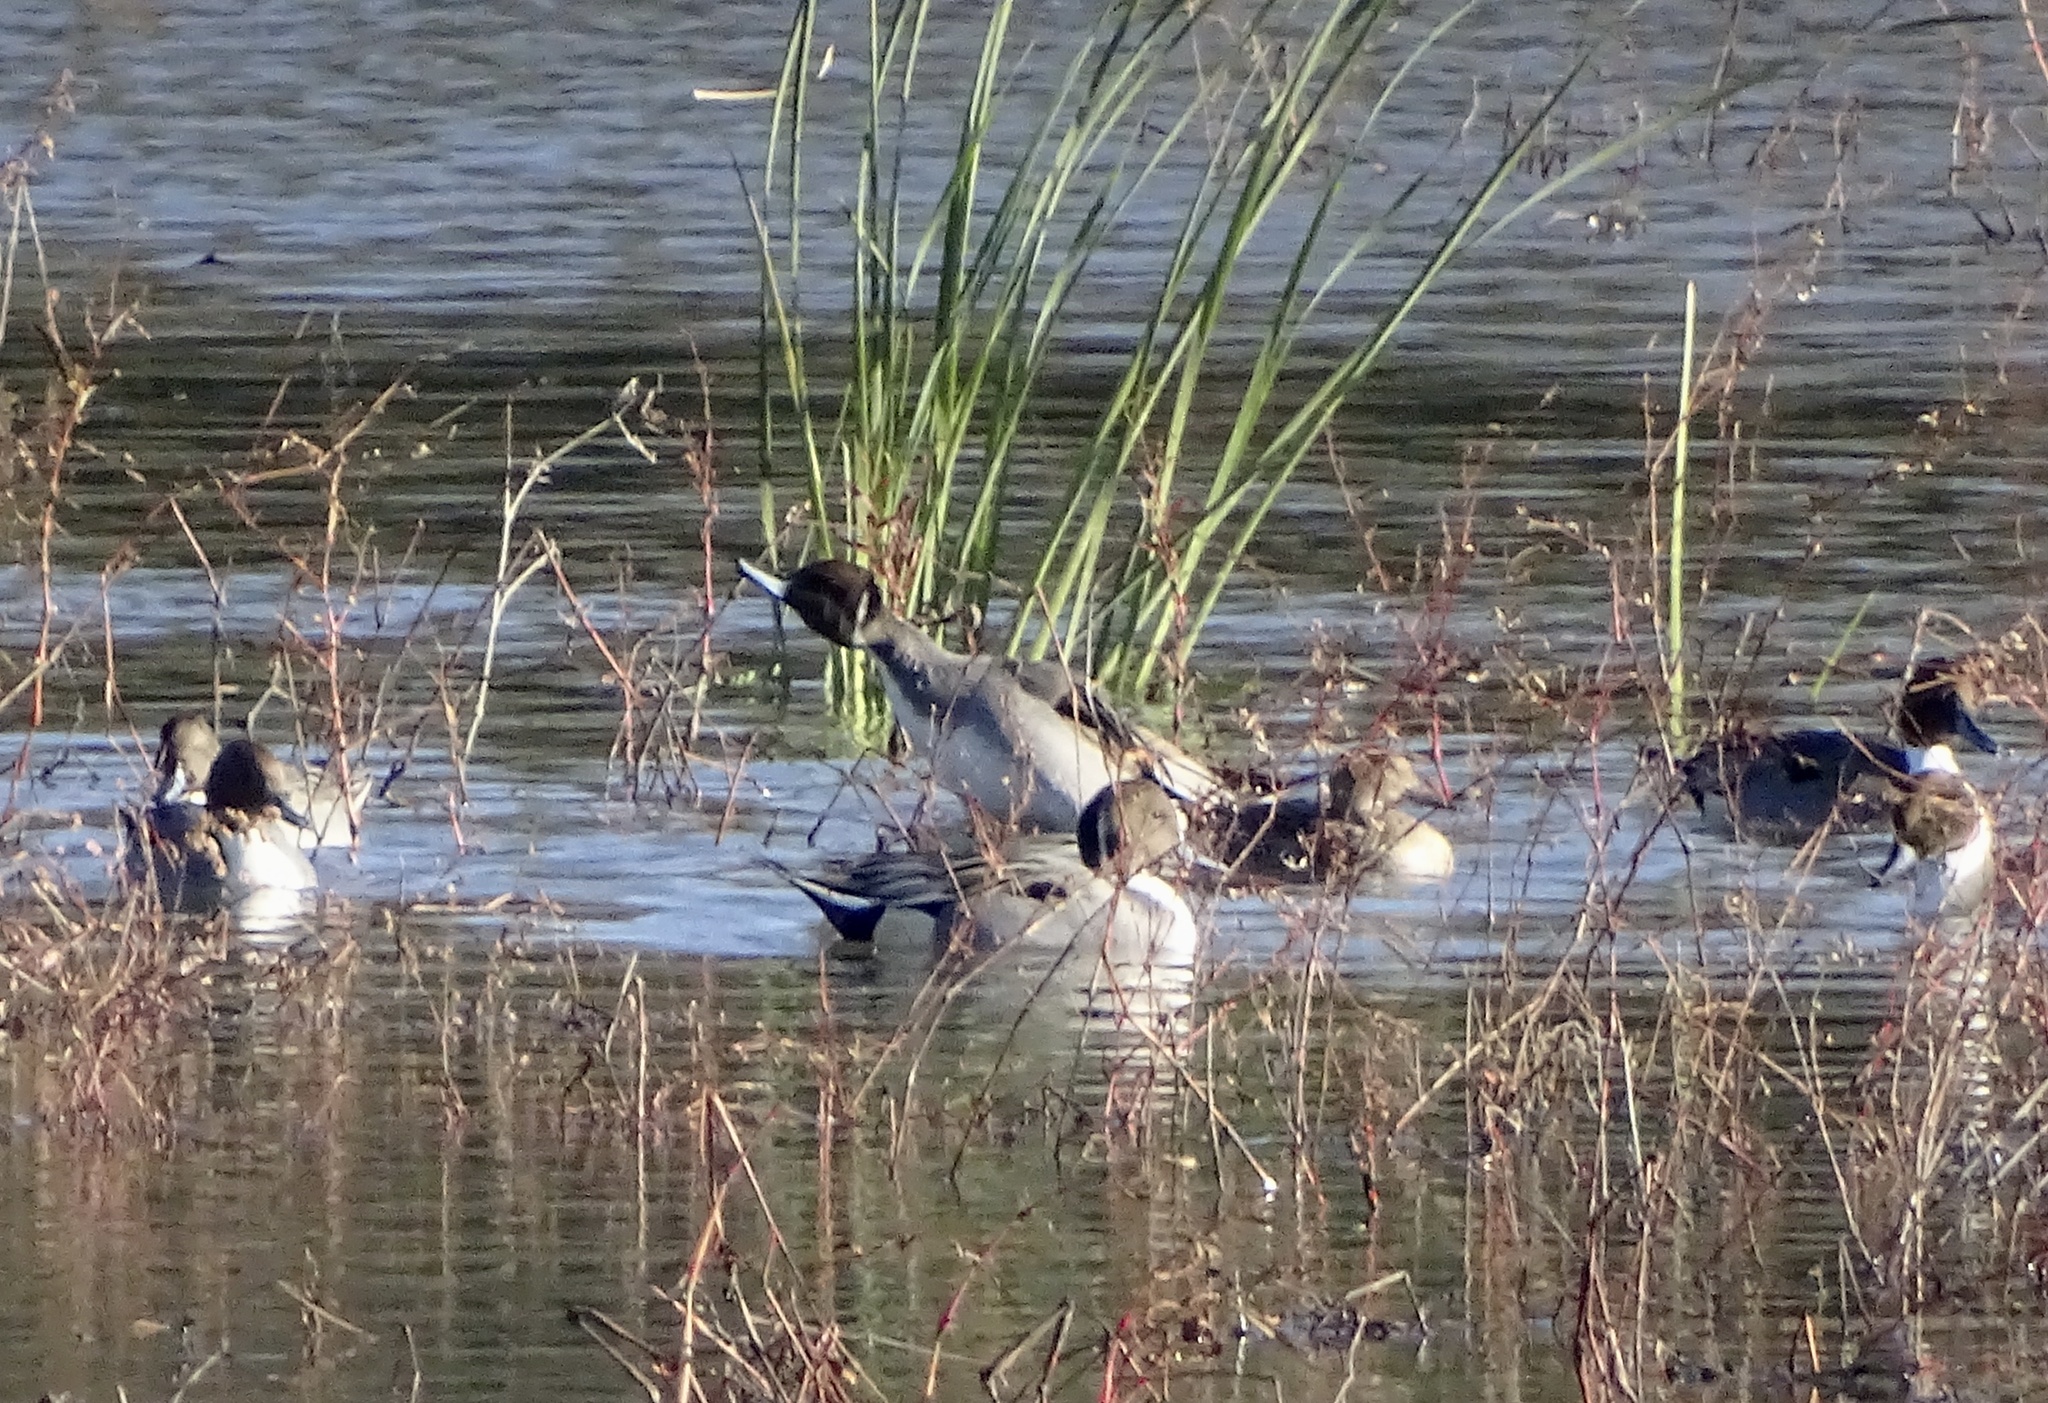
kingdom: Animalia
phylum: Chordata
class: Aves
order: Anseriformes
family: Anatidae
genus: Anas
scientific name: Anas acuta
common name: Northern pintail
